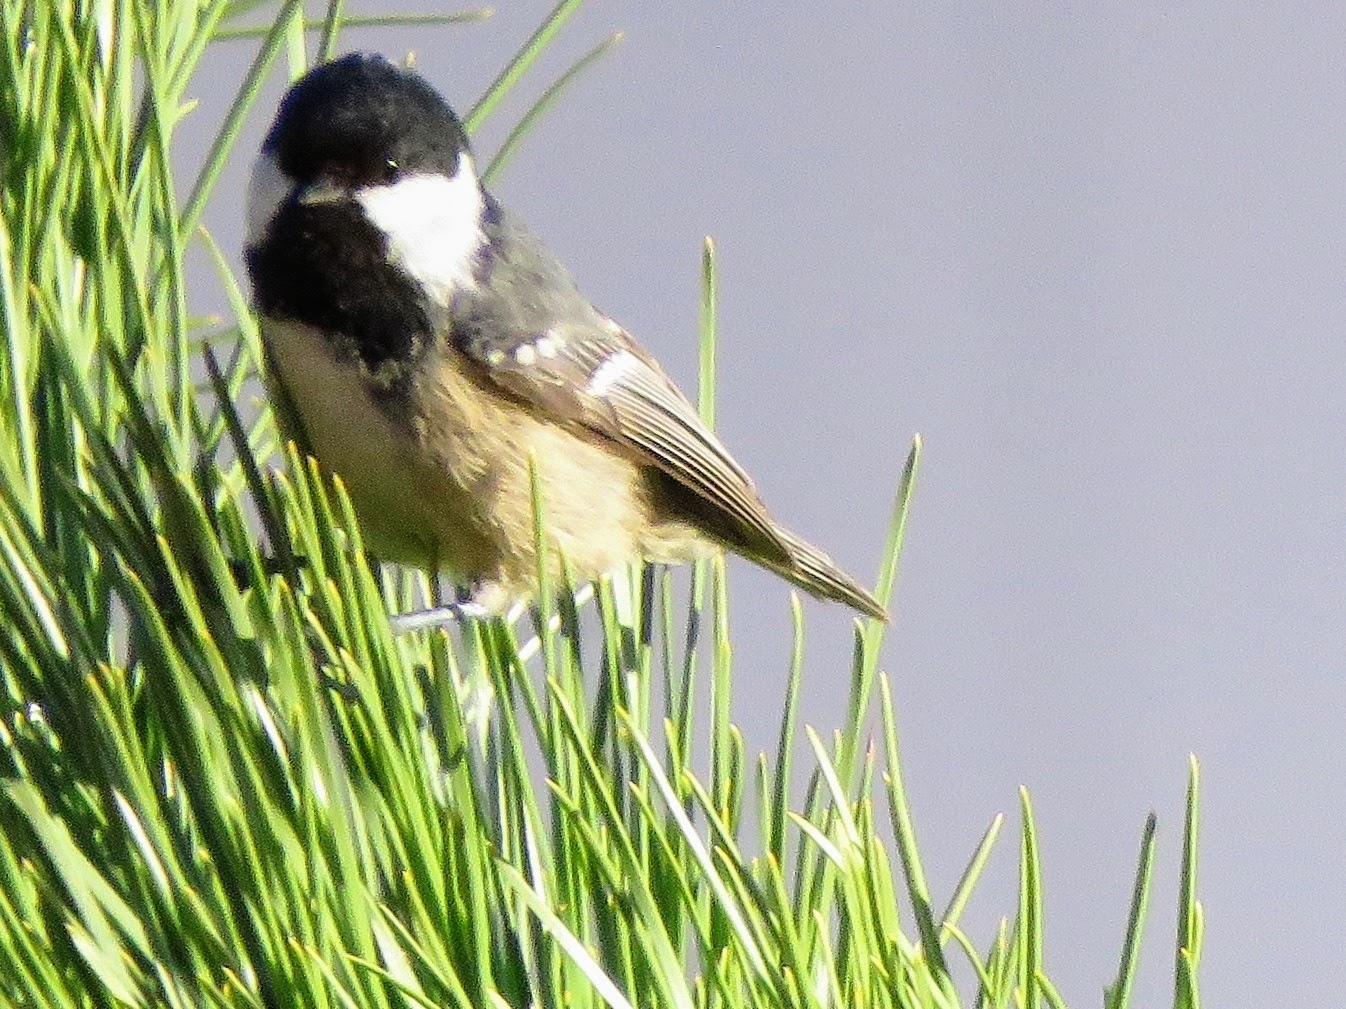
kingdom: Animalia
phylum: Chordata
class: Aves
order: Passeriformes
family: Paridae
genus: Periparus
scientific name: Periparus ater
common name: Coal tit
